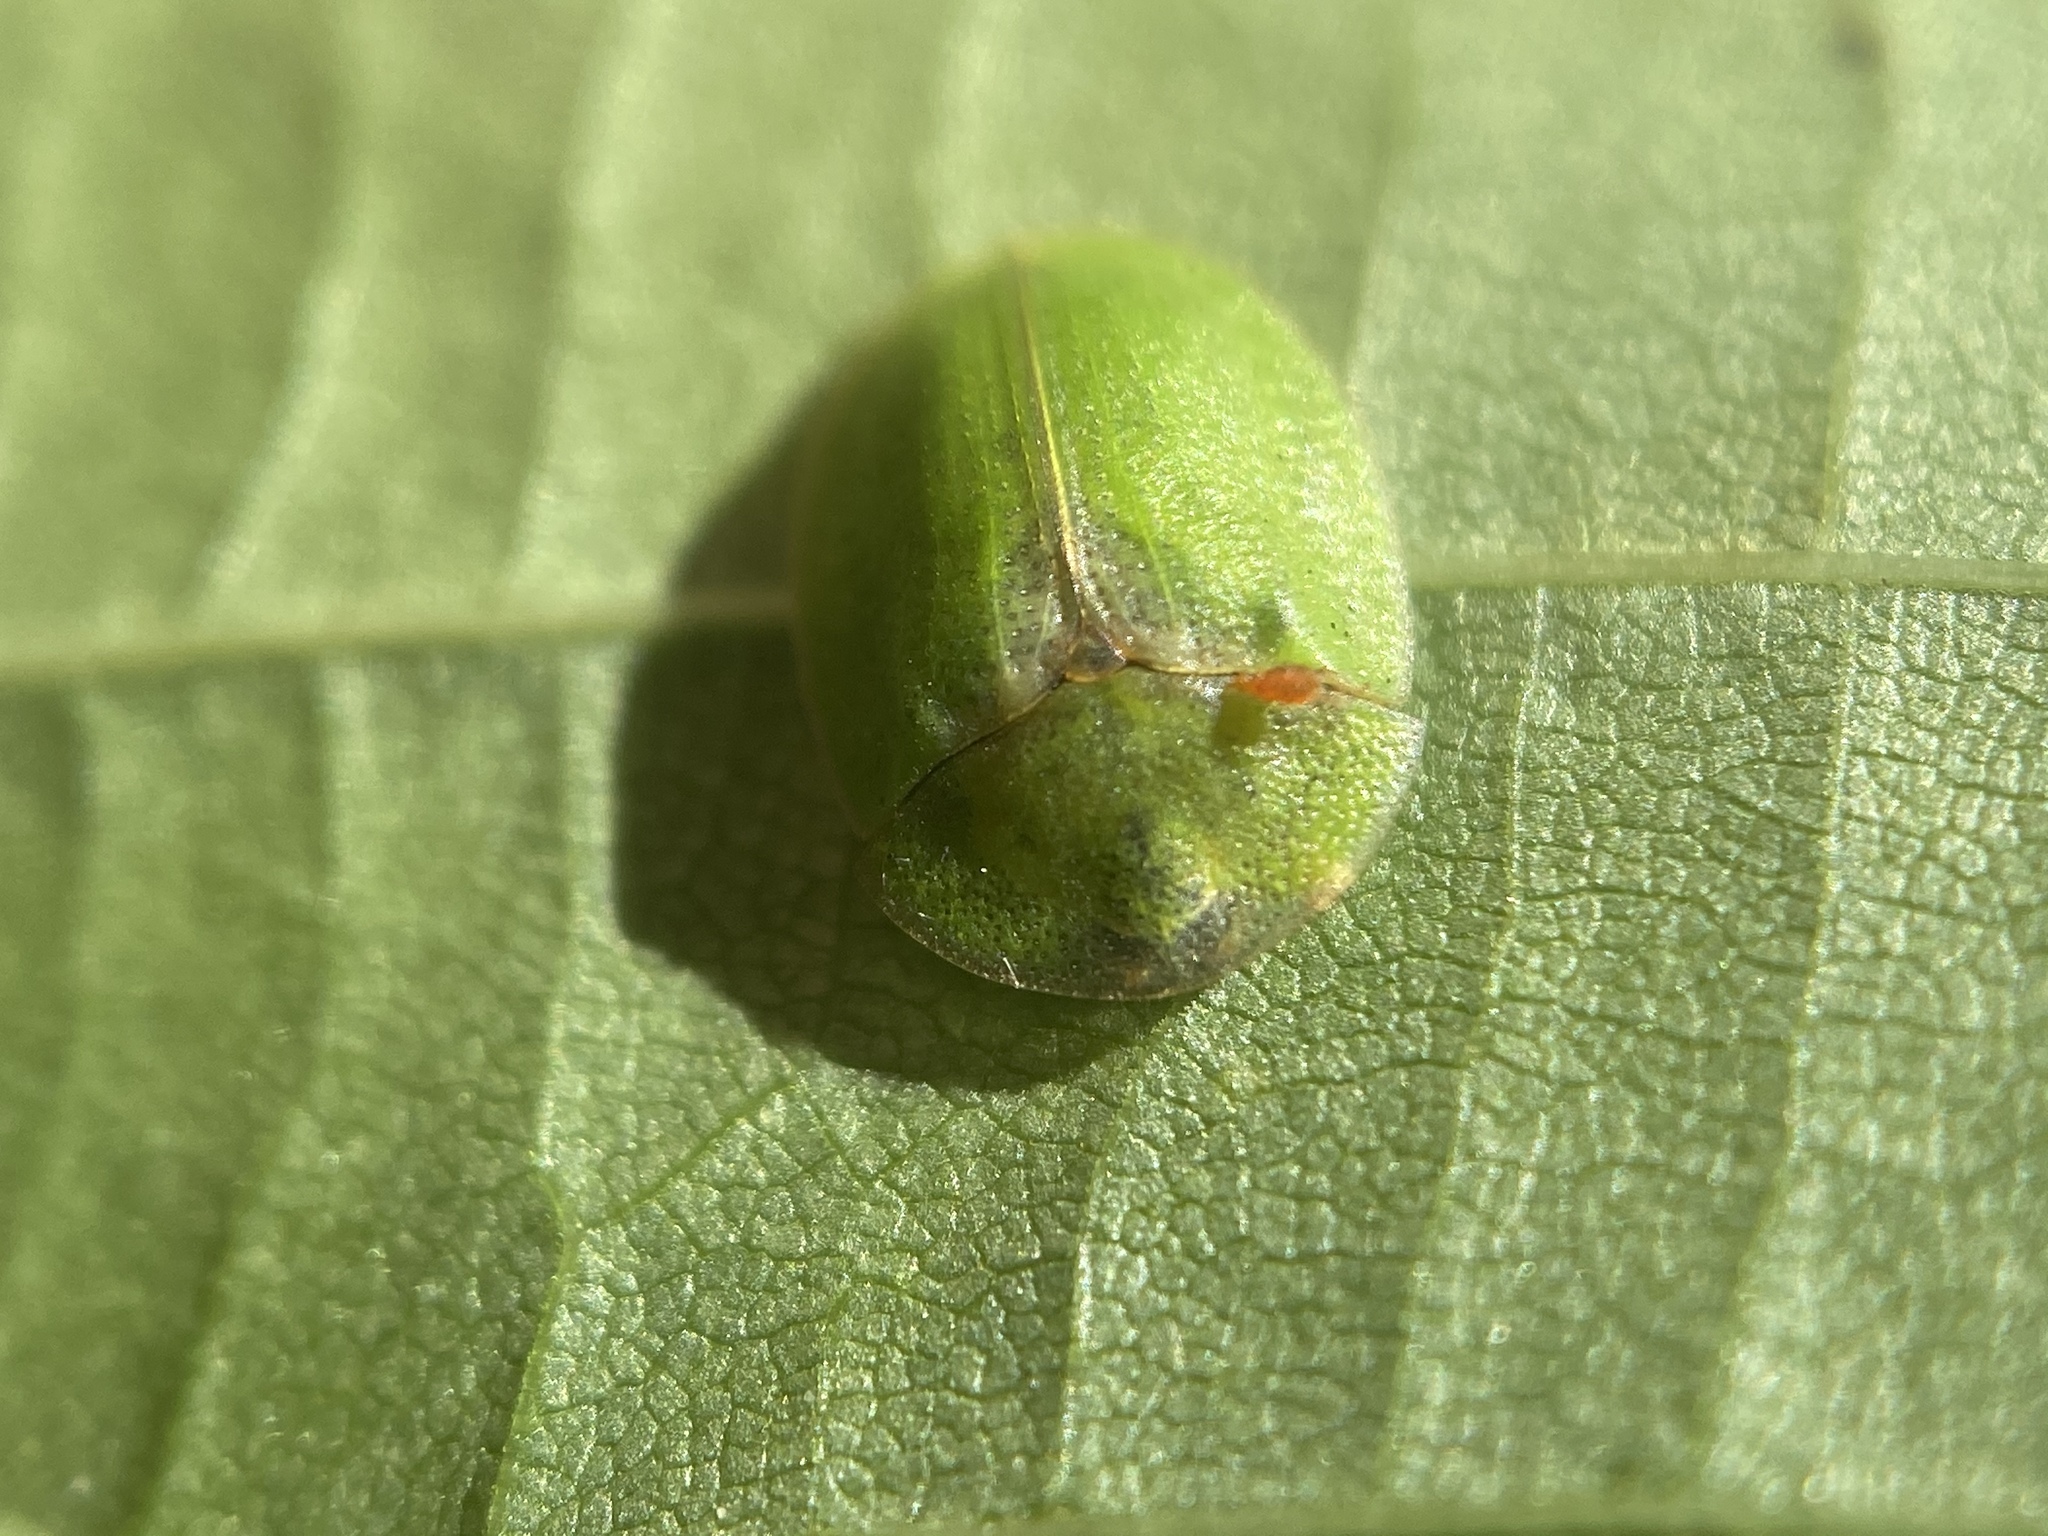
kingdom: Animalia
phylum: Arthropoda
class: Insecta
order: Coleoptera
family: Chrysomelidae
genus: Cassida
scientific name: Cassida rubiginosa
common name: Thistle tortoise beetle
